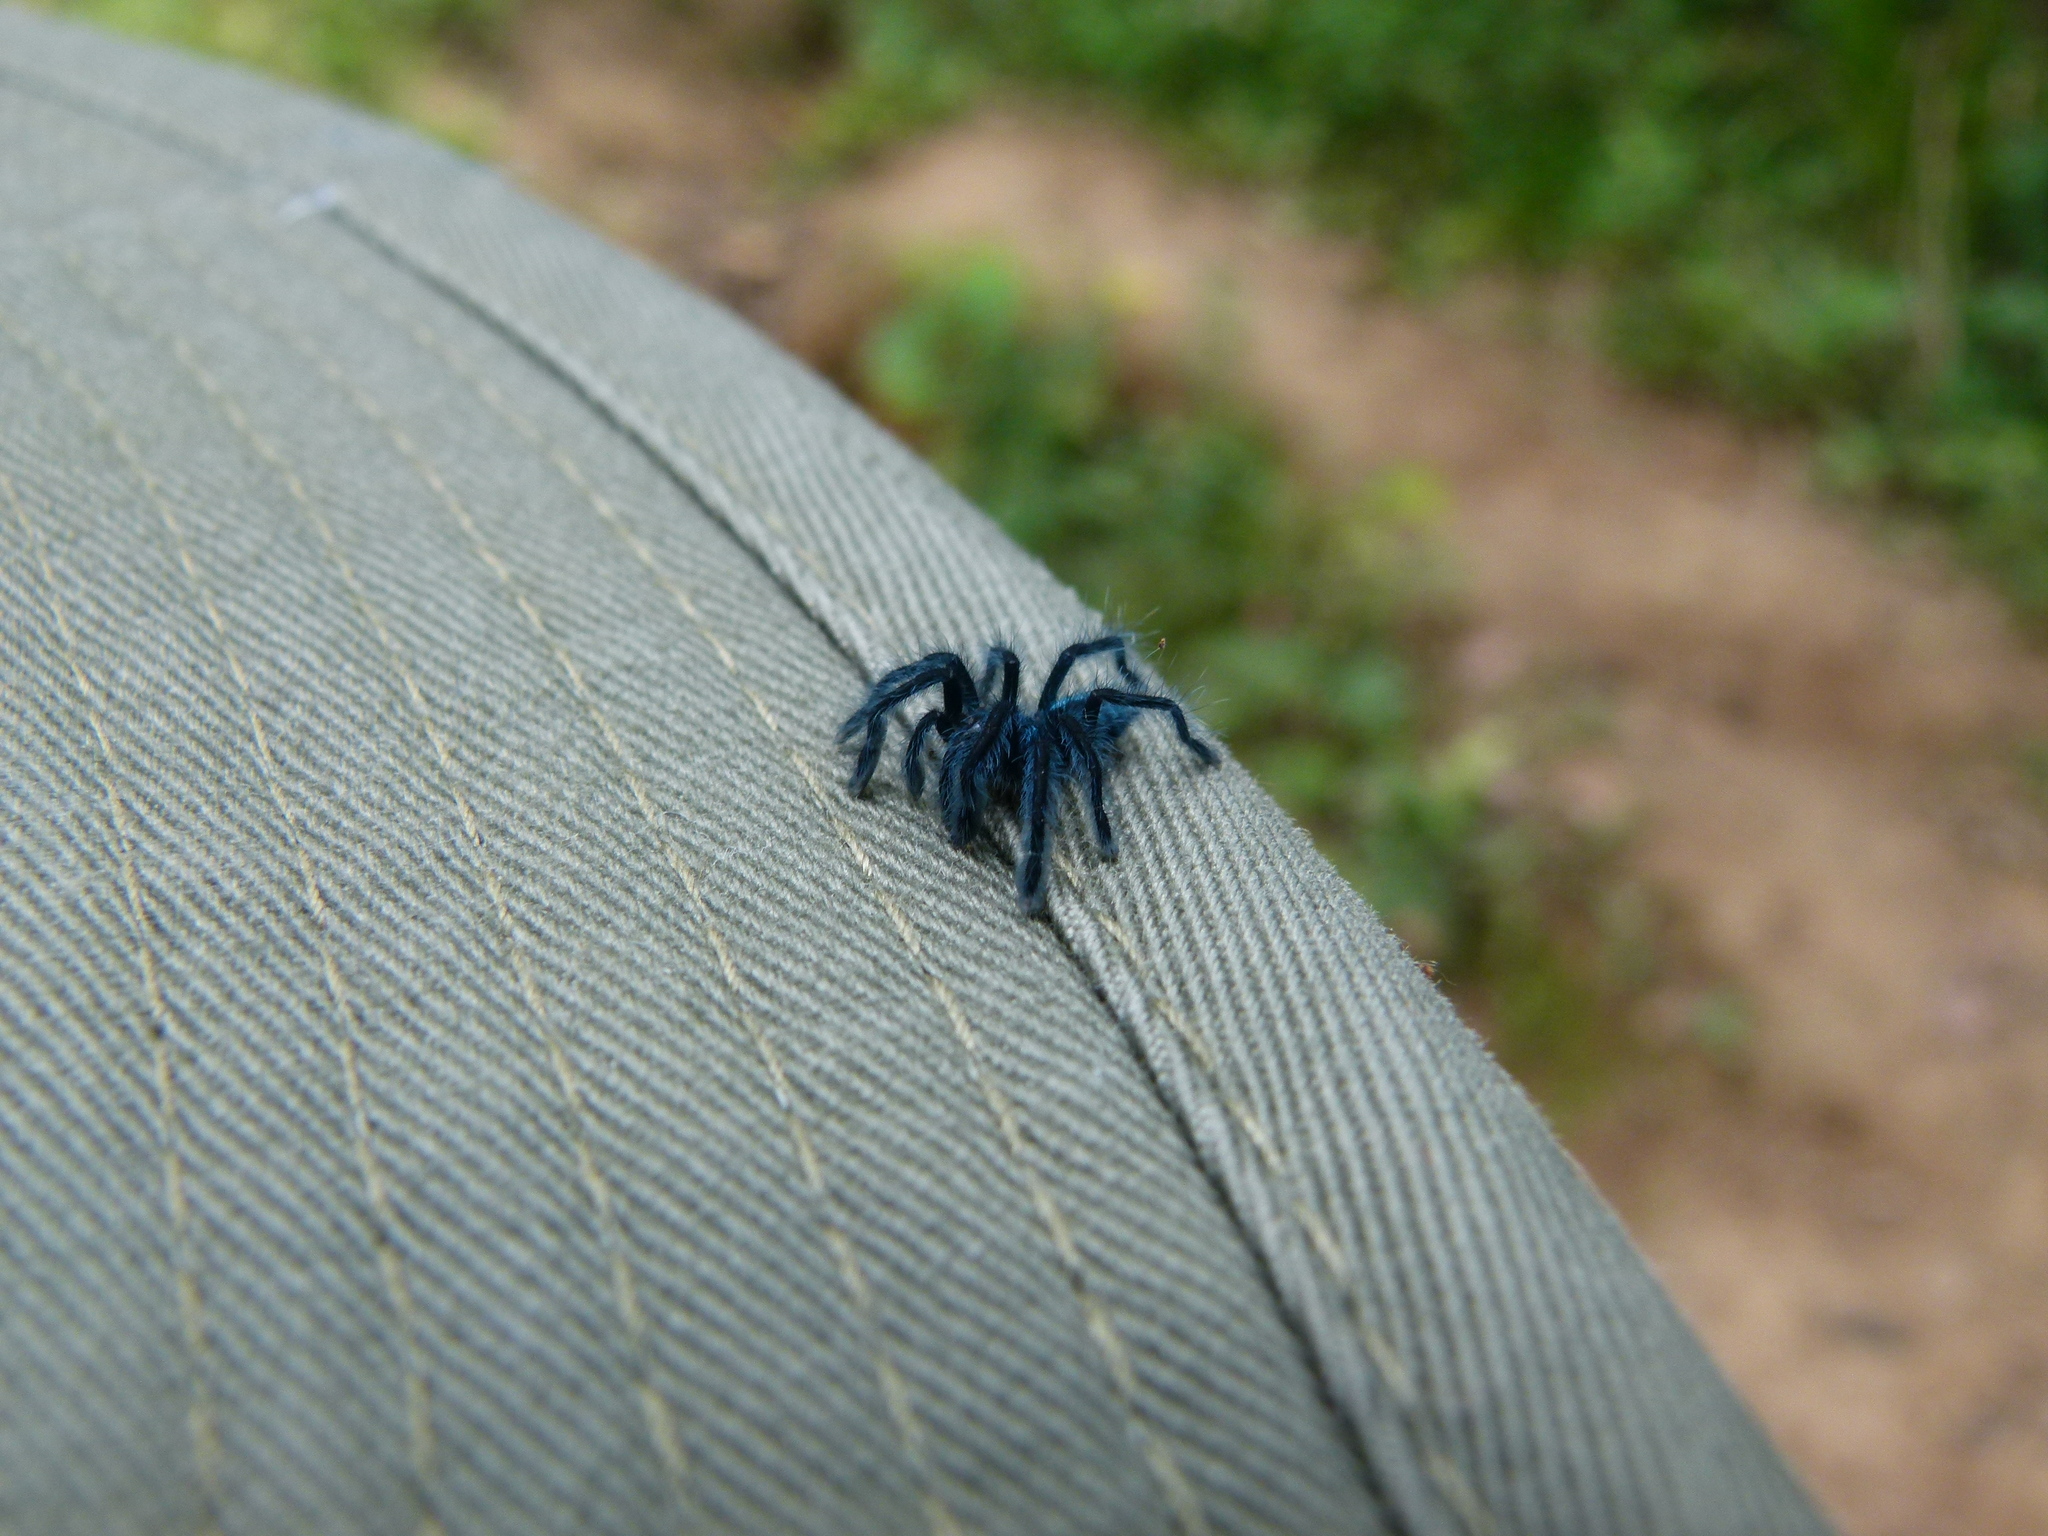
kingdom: Animalia
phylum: Arthropoda
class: Arachnida
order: Araneae
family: Theraphosidae
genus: Caribena
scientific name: Caribena laeta
